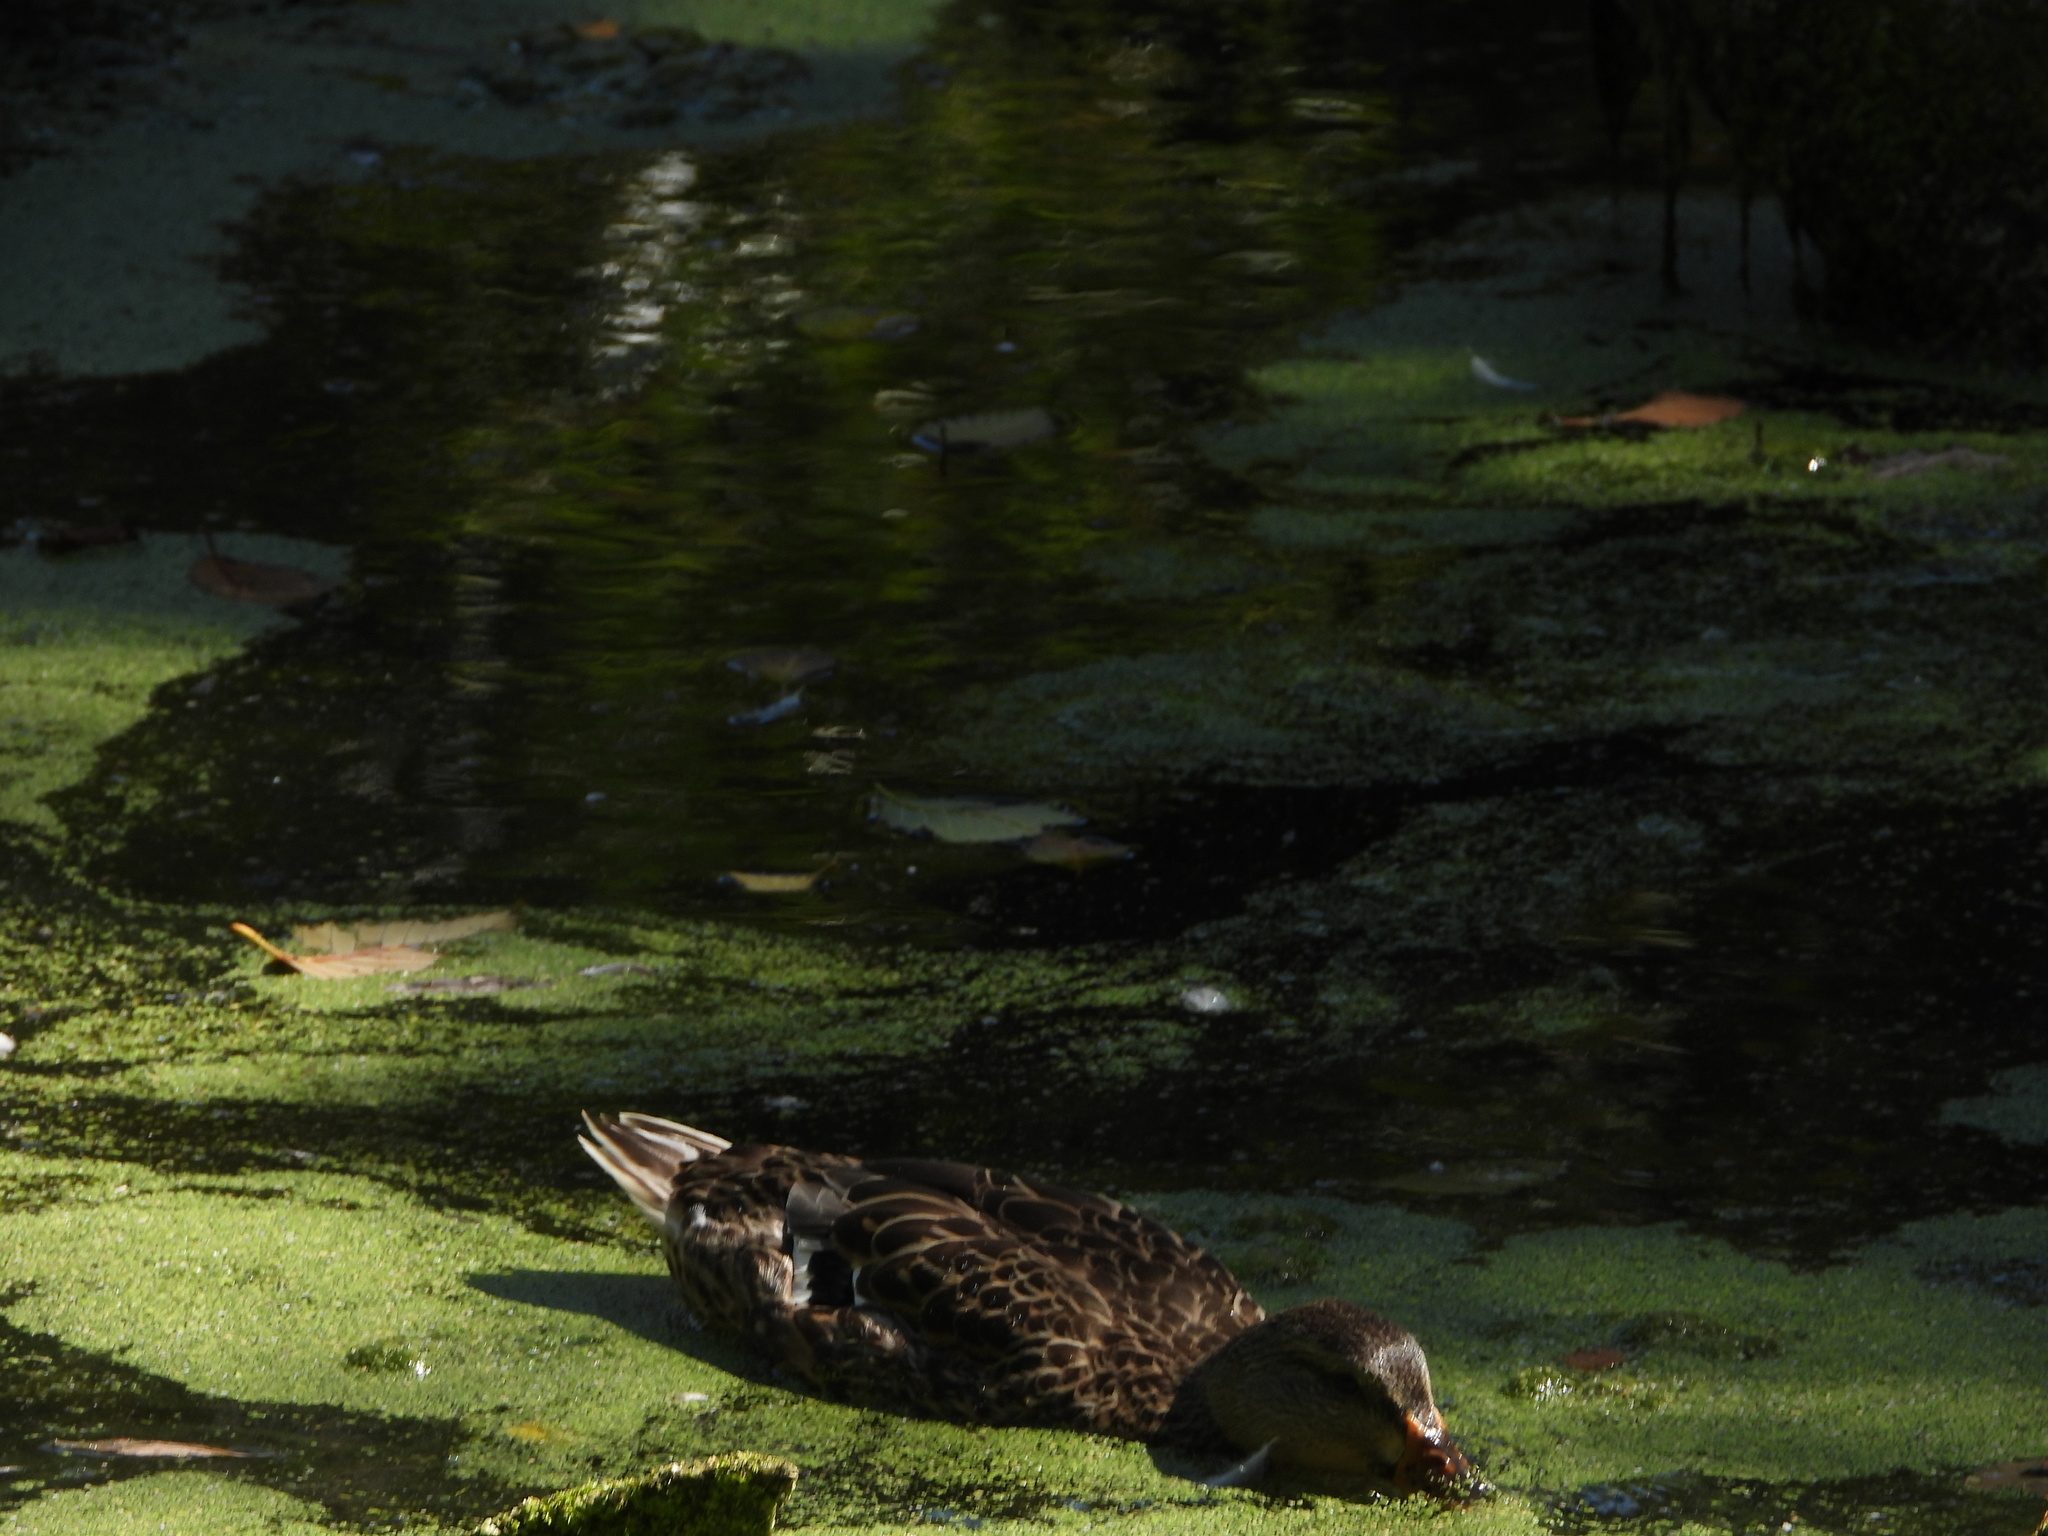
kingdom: Animalia
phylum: Chordata
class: Aves
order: Anseriformes
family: Anatidae
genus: Anas
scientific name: Anas platyrhynchos
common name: Mallard
